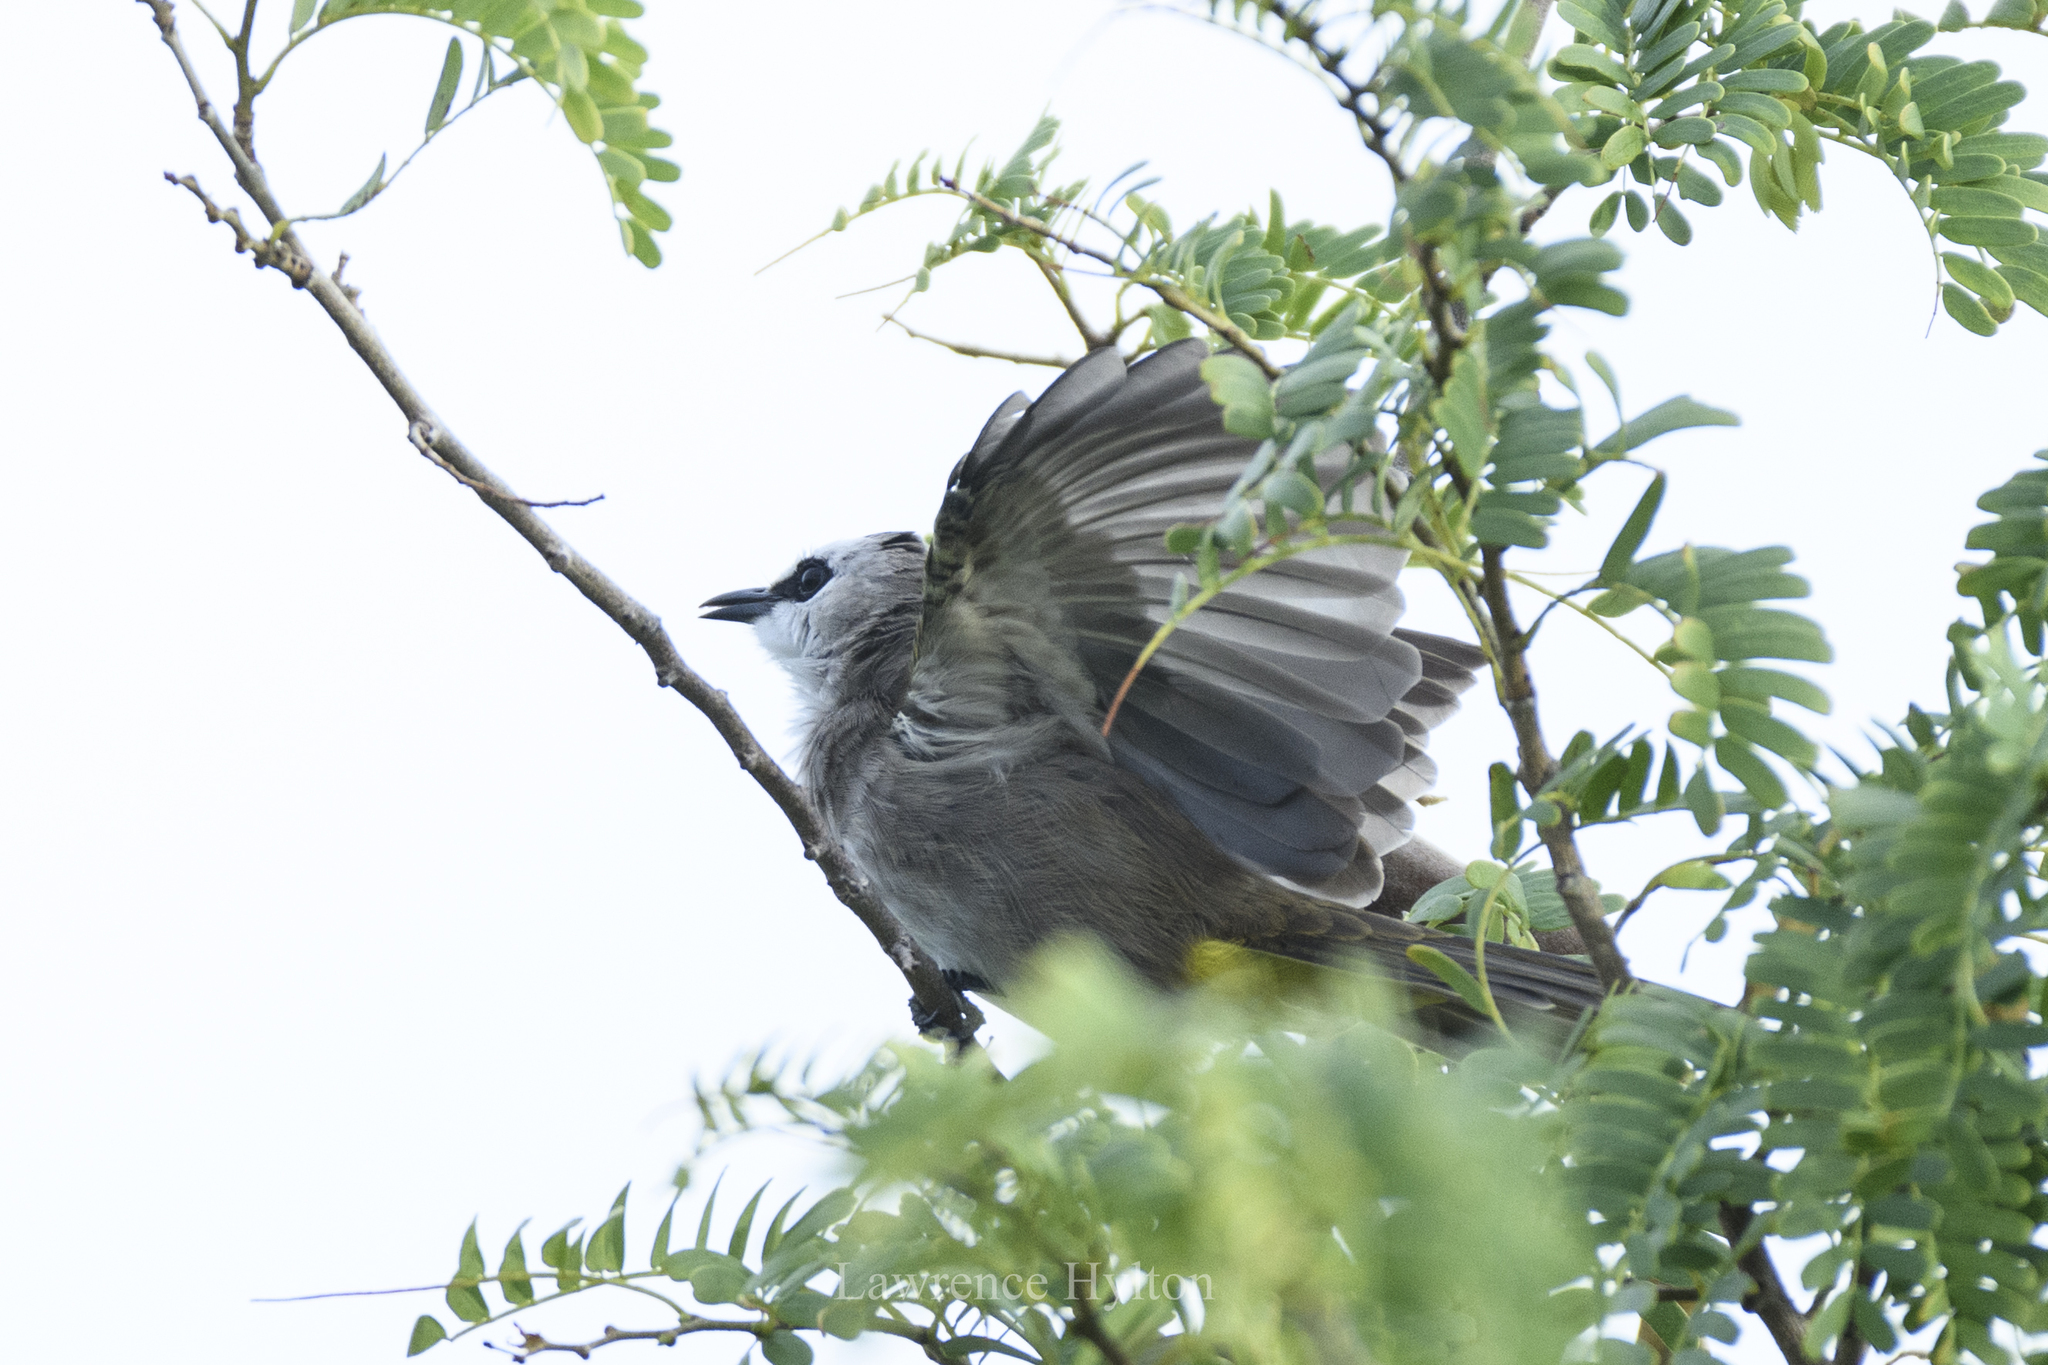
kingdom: Animalia
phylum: Chordata
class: Aves
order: Passeriformes
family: Pycnonotidae
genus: Pycnonotus
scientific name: Pycnonotus goiavier
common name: Yellow-vented bulbul
